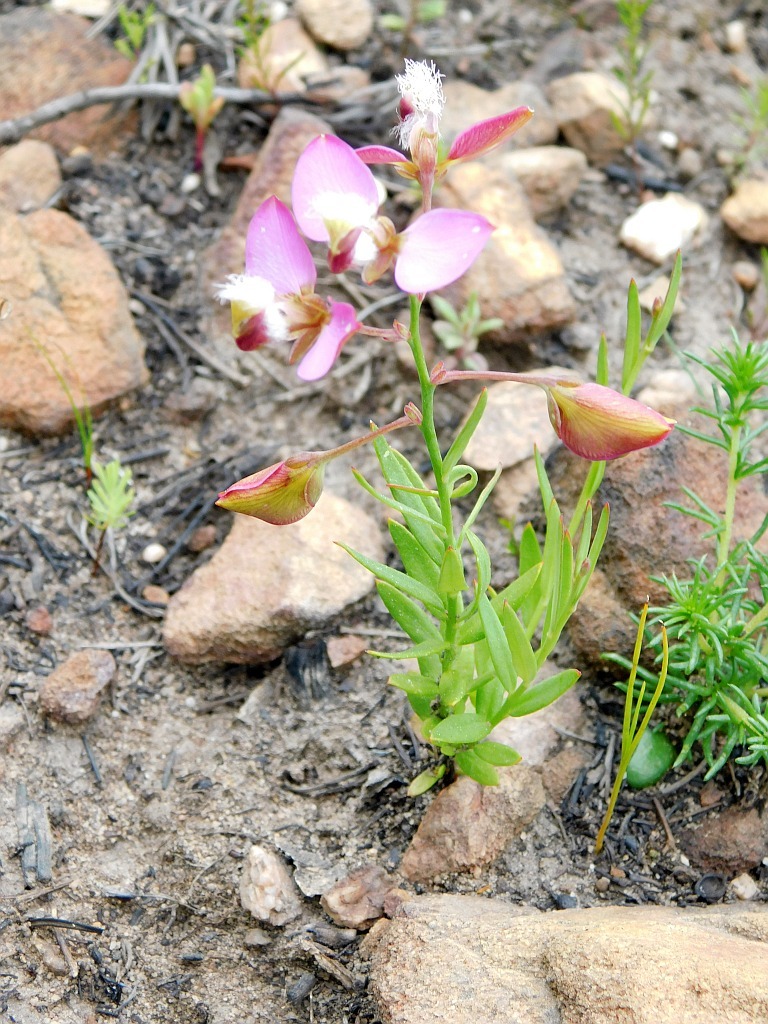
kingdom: Plantae
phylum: Tracheophyta
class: Magnoliopsida
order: Fabales
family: Polygalaceae
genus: Polygala
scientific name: Polygala bracteolata
